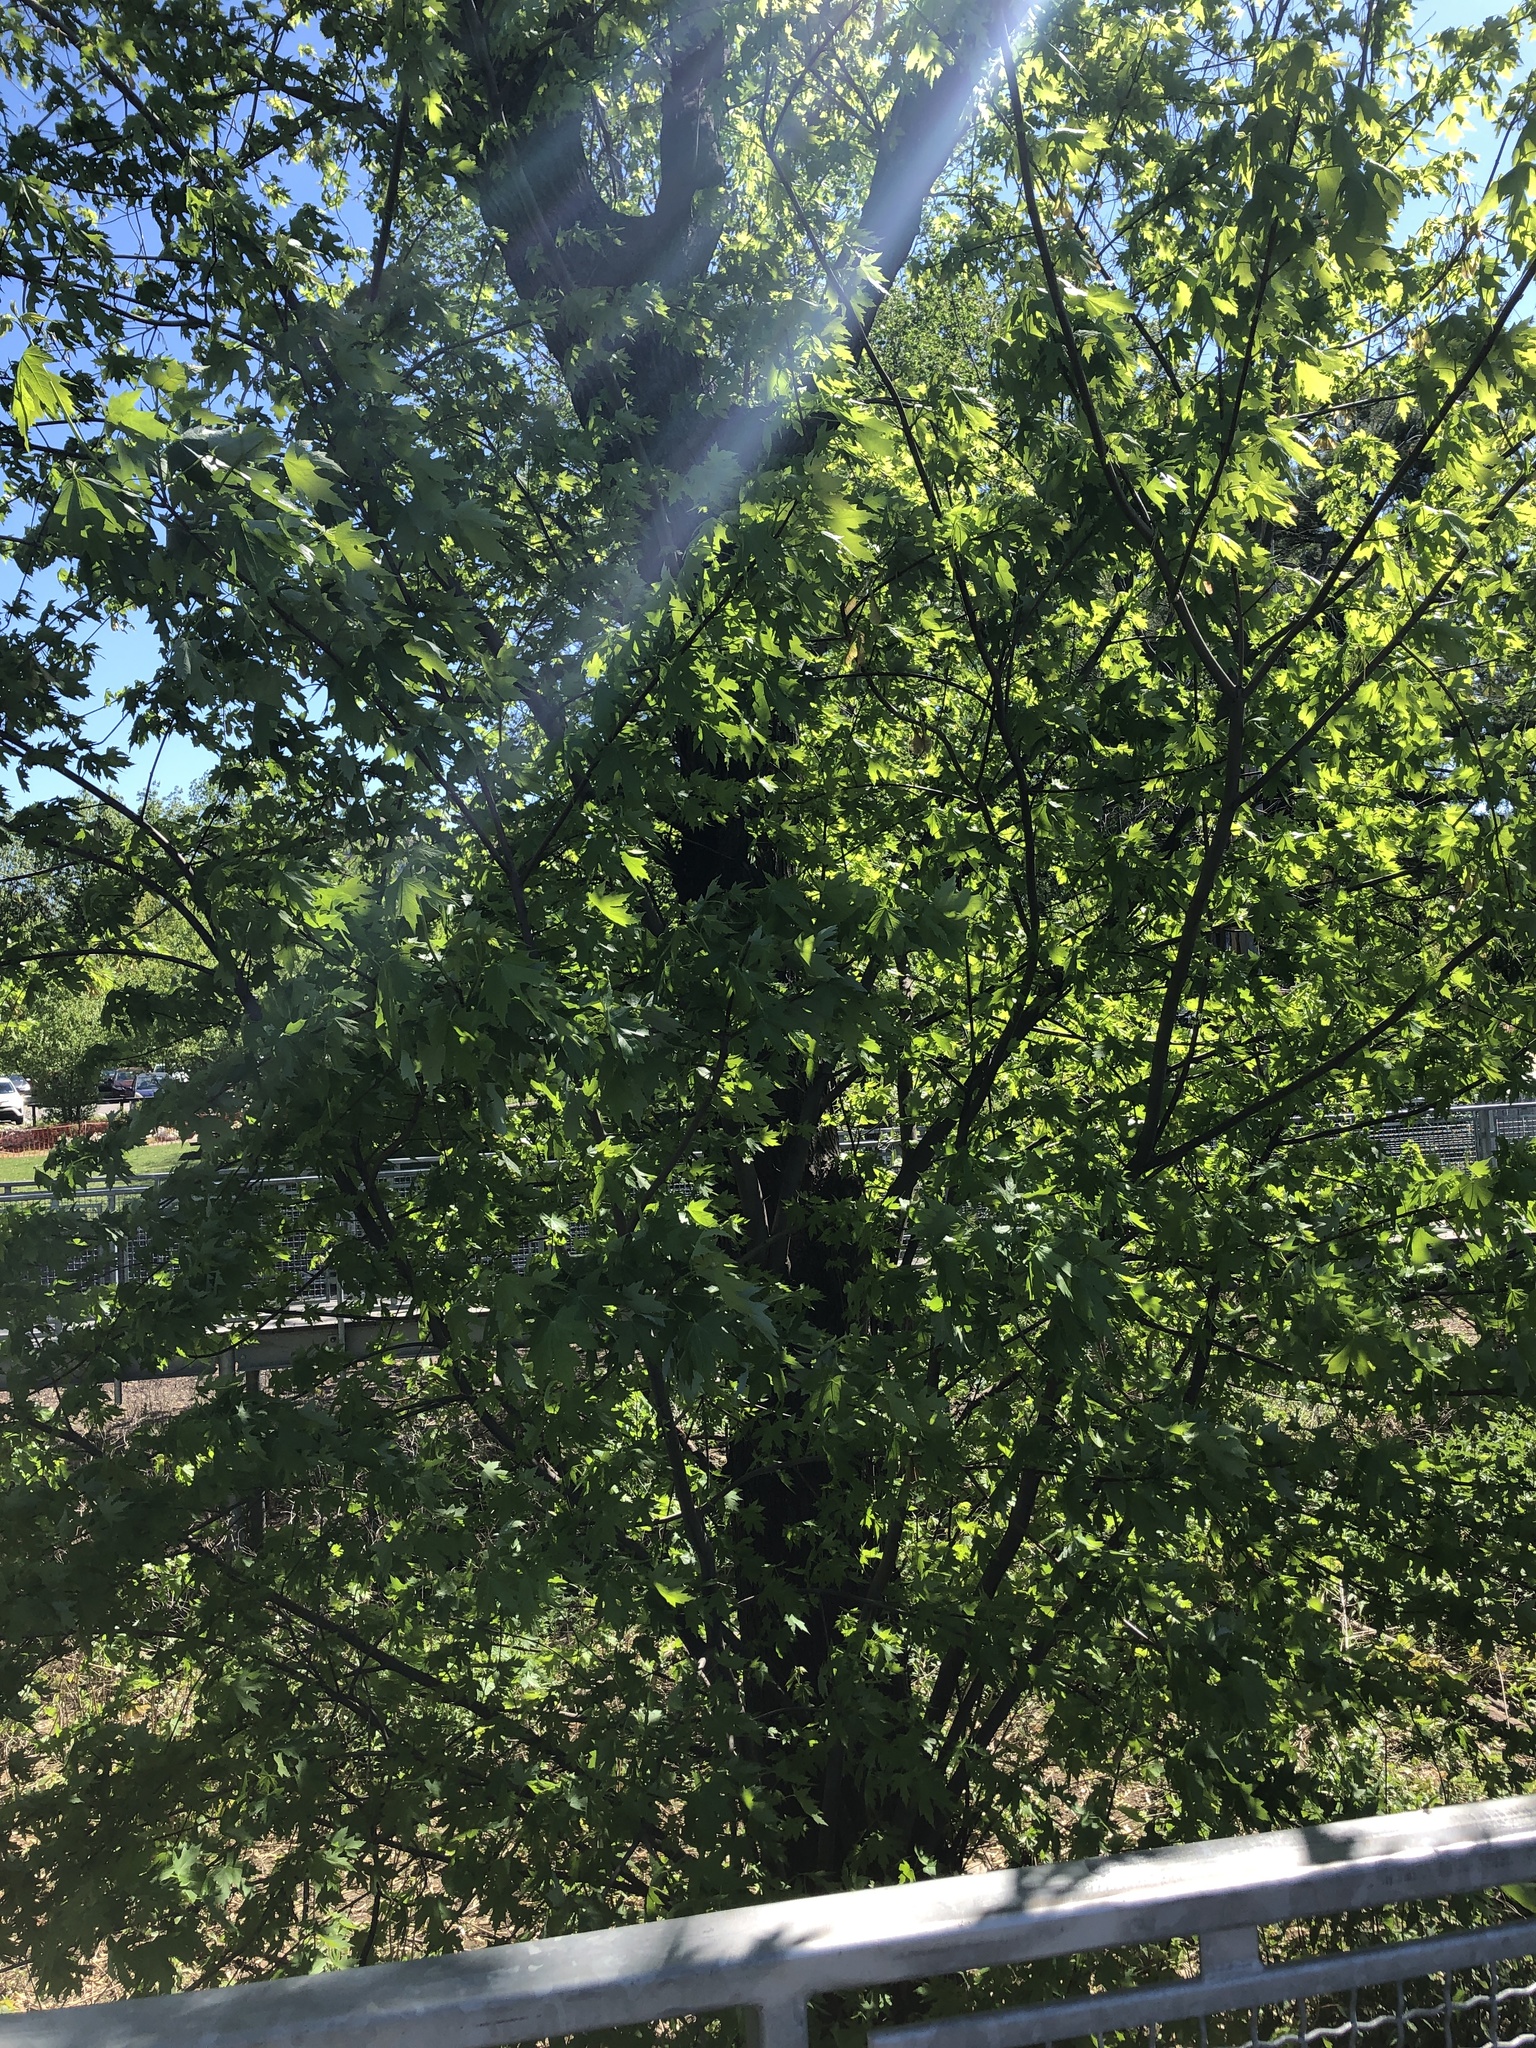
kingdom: Plantae
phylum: Tracheophyta
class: Magnoliopsida
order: Sapindales
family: Sapindaceae
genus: Acer
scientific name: Acer saccharinum
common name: Silver maple
